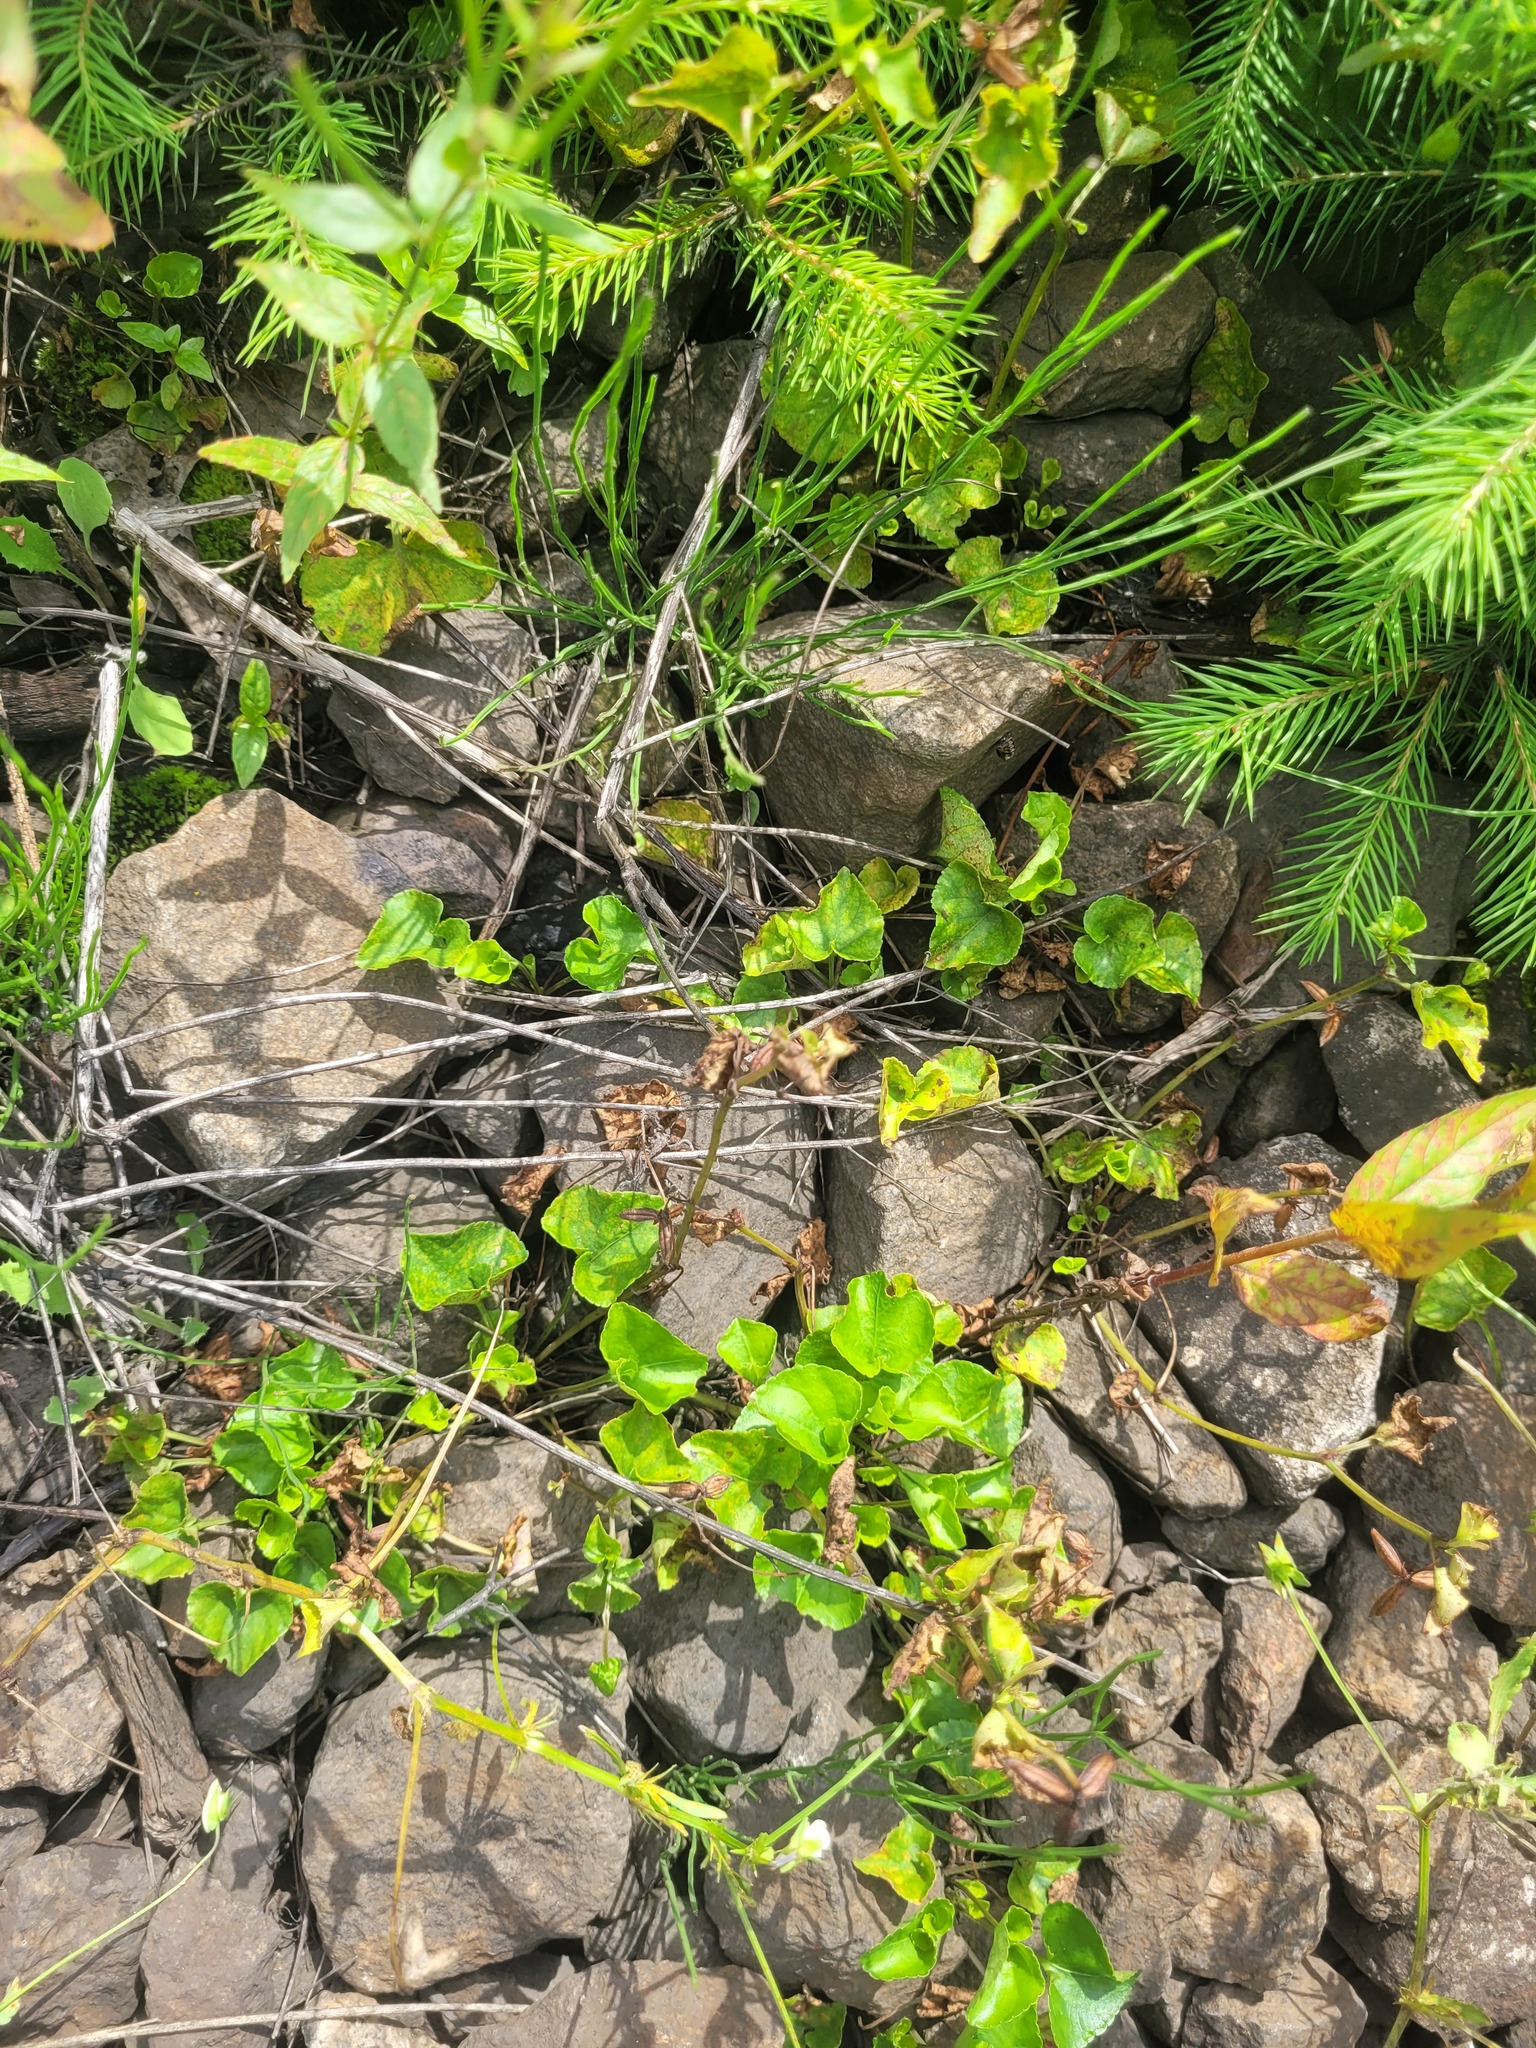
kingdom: Plantae
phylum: Tracheophyta
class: Magnoliopsida
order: Malpighiales
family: Violaceae
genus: Viola
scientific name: Viola riviniana
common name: Common dog-violet
